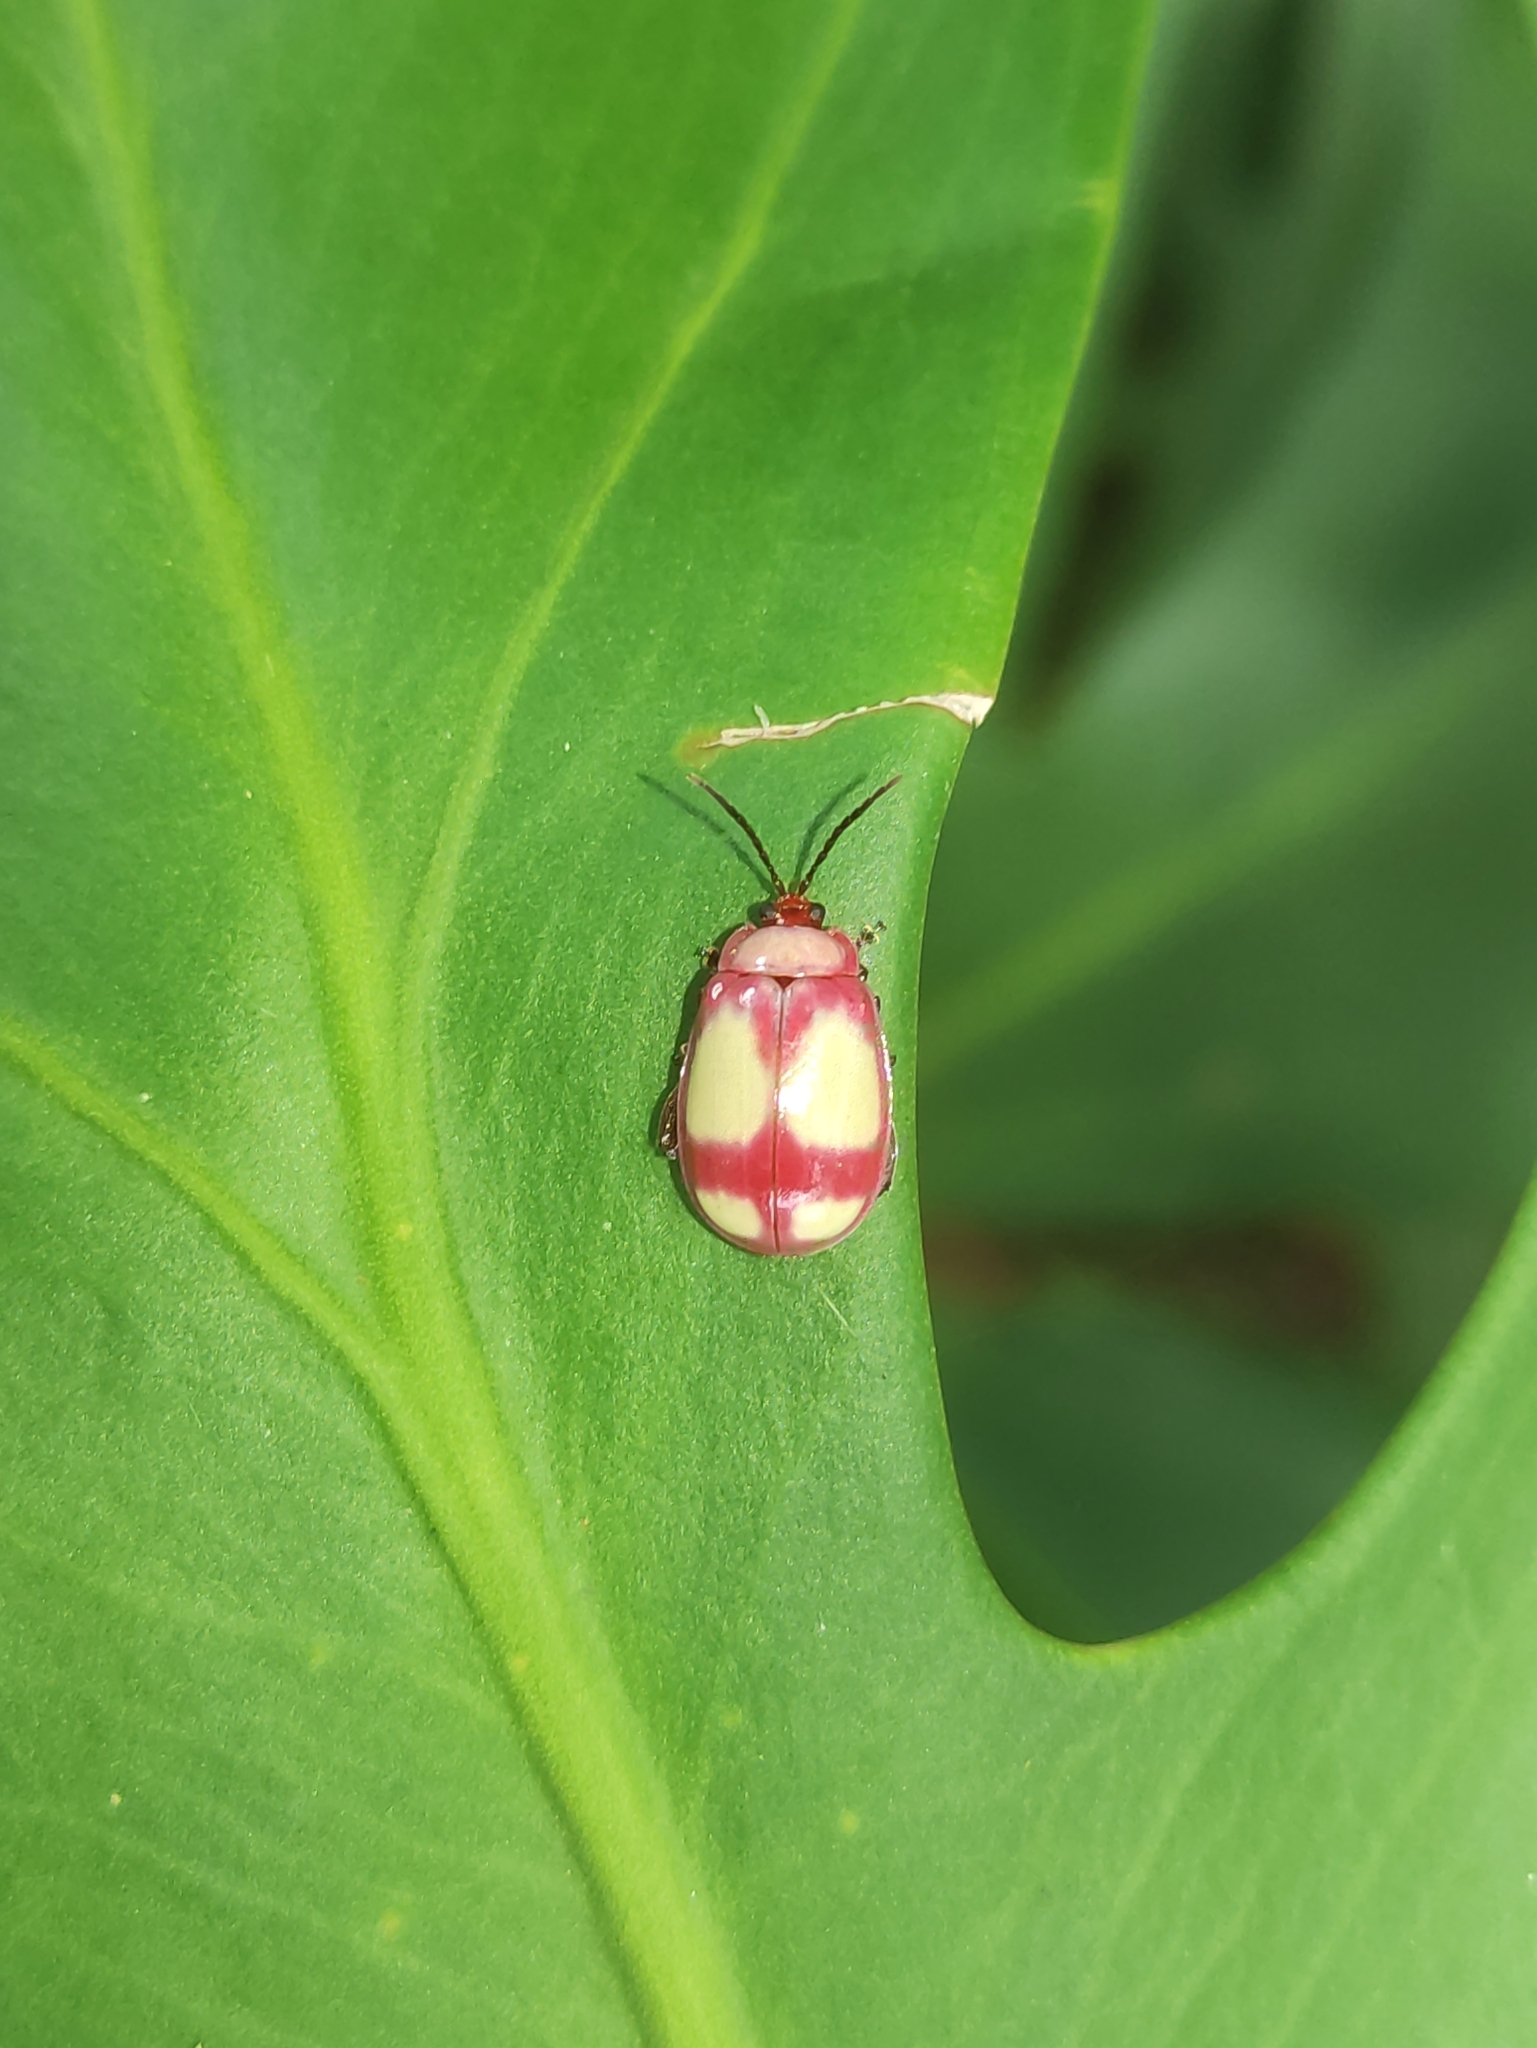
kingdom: Animalia
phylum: Arthropoda
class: Insecta
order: Coleoptera
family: Chrysomelidae
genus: Wanderbiltiana
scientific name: Wanderbiltiana
